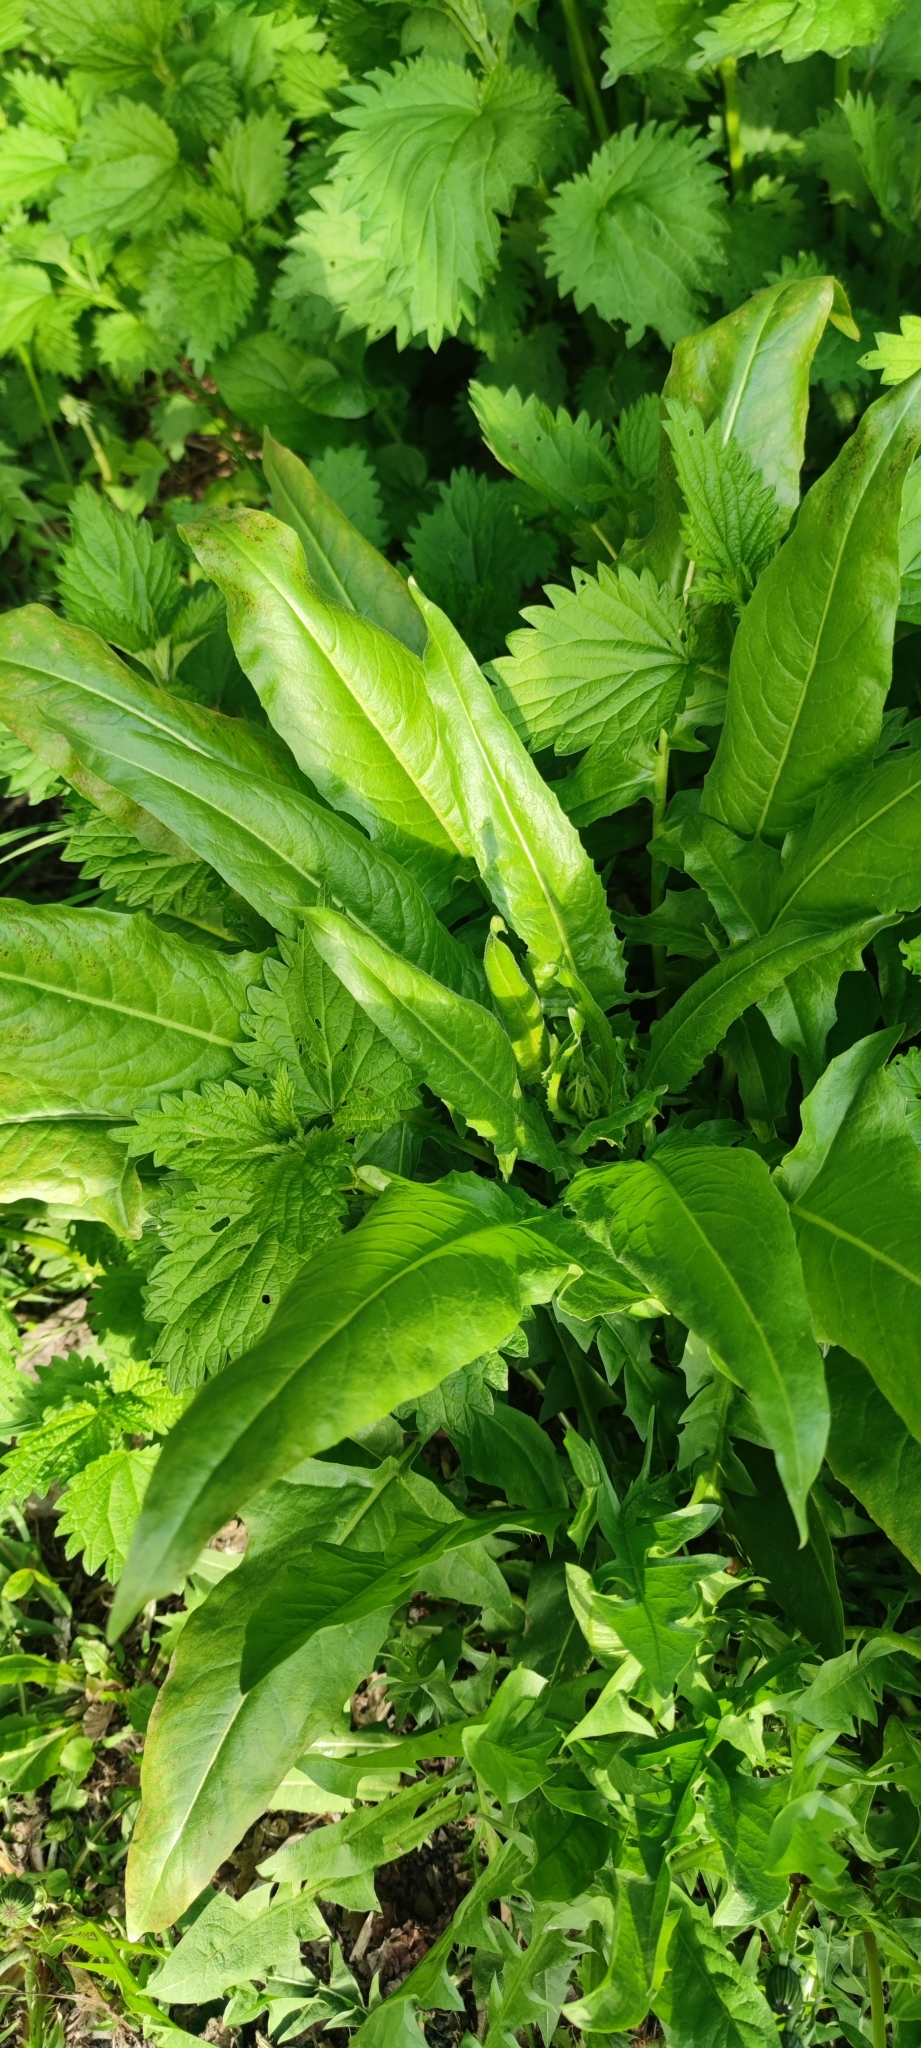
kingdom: Plantae
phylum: Tracheophyta
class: Magnoliopsida
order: Brassicales
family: Brassicaceae
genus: Bunias
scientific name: Bunias orientalis
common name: Warty-cabbage
